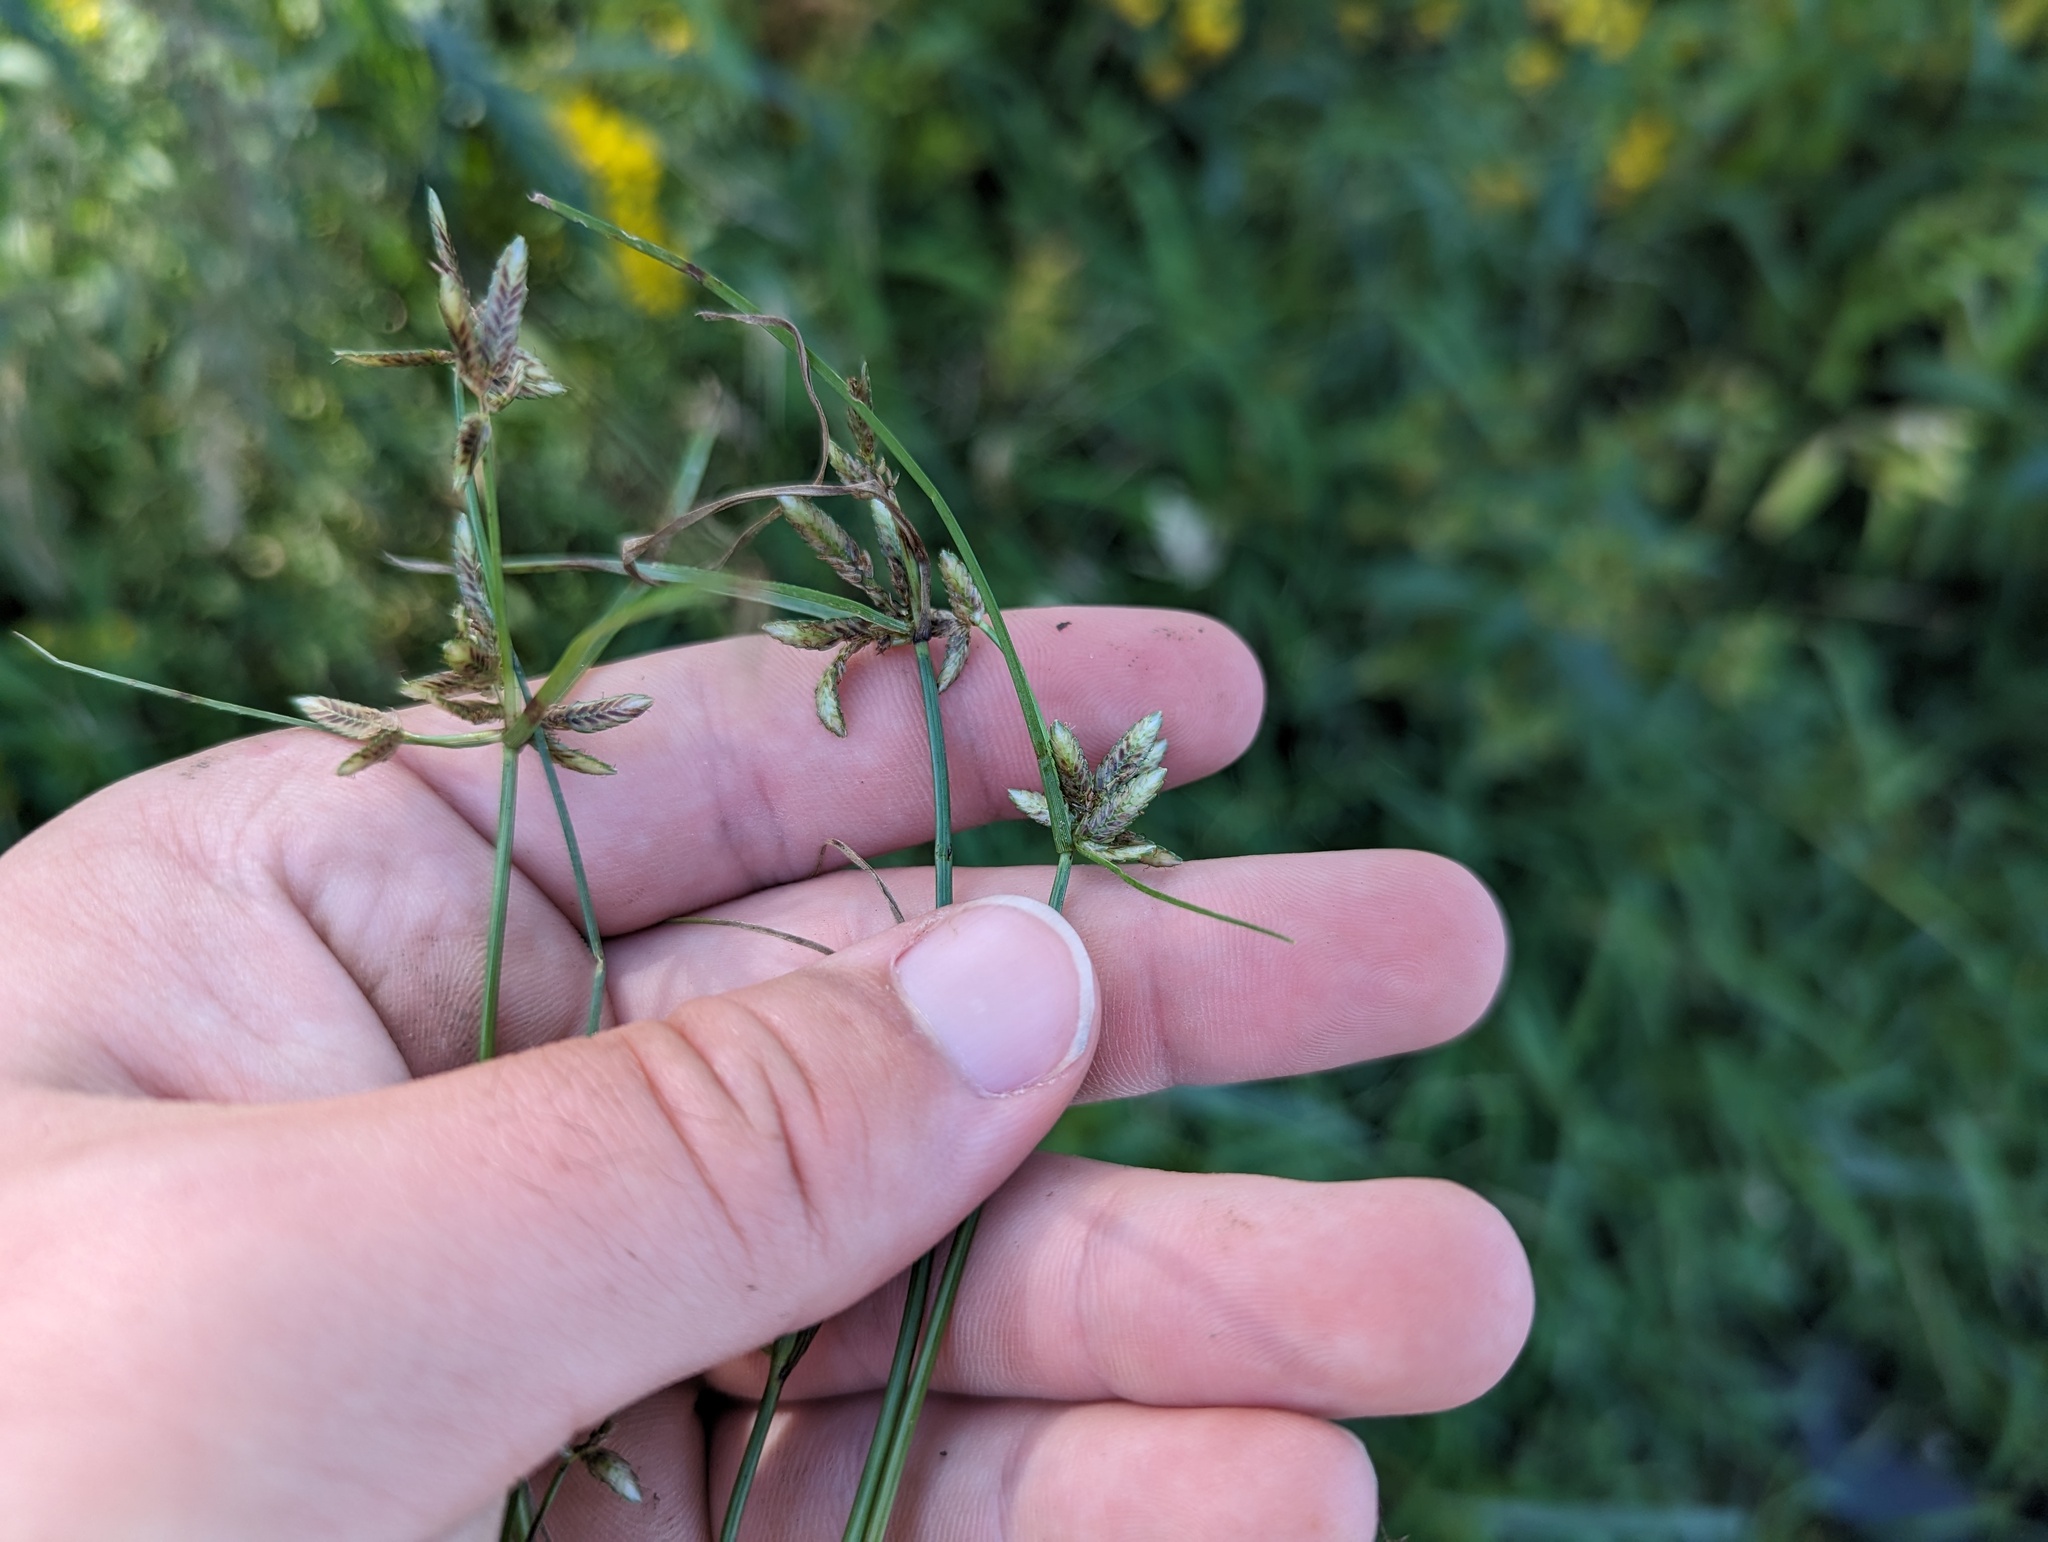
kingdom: Plantae
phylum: Tracheophyta
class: Liliopsida
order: Poales
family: Cyperaceae
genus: Cyperus
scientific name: Cyperus bipartitus
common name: Brook flatsedge
